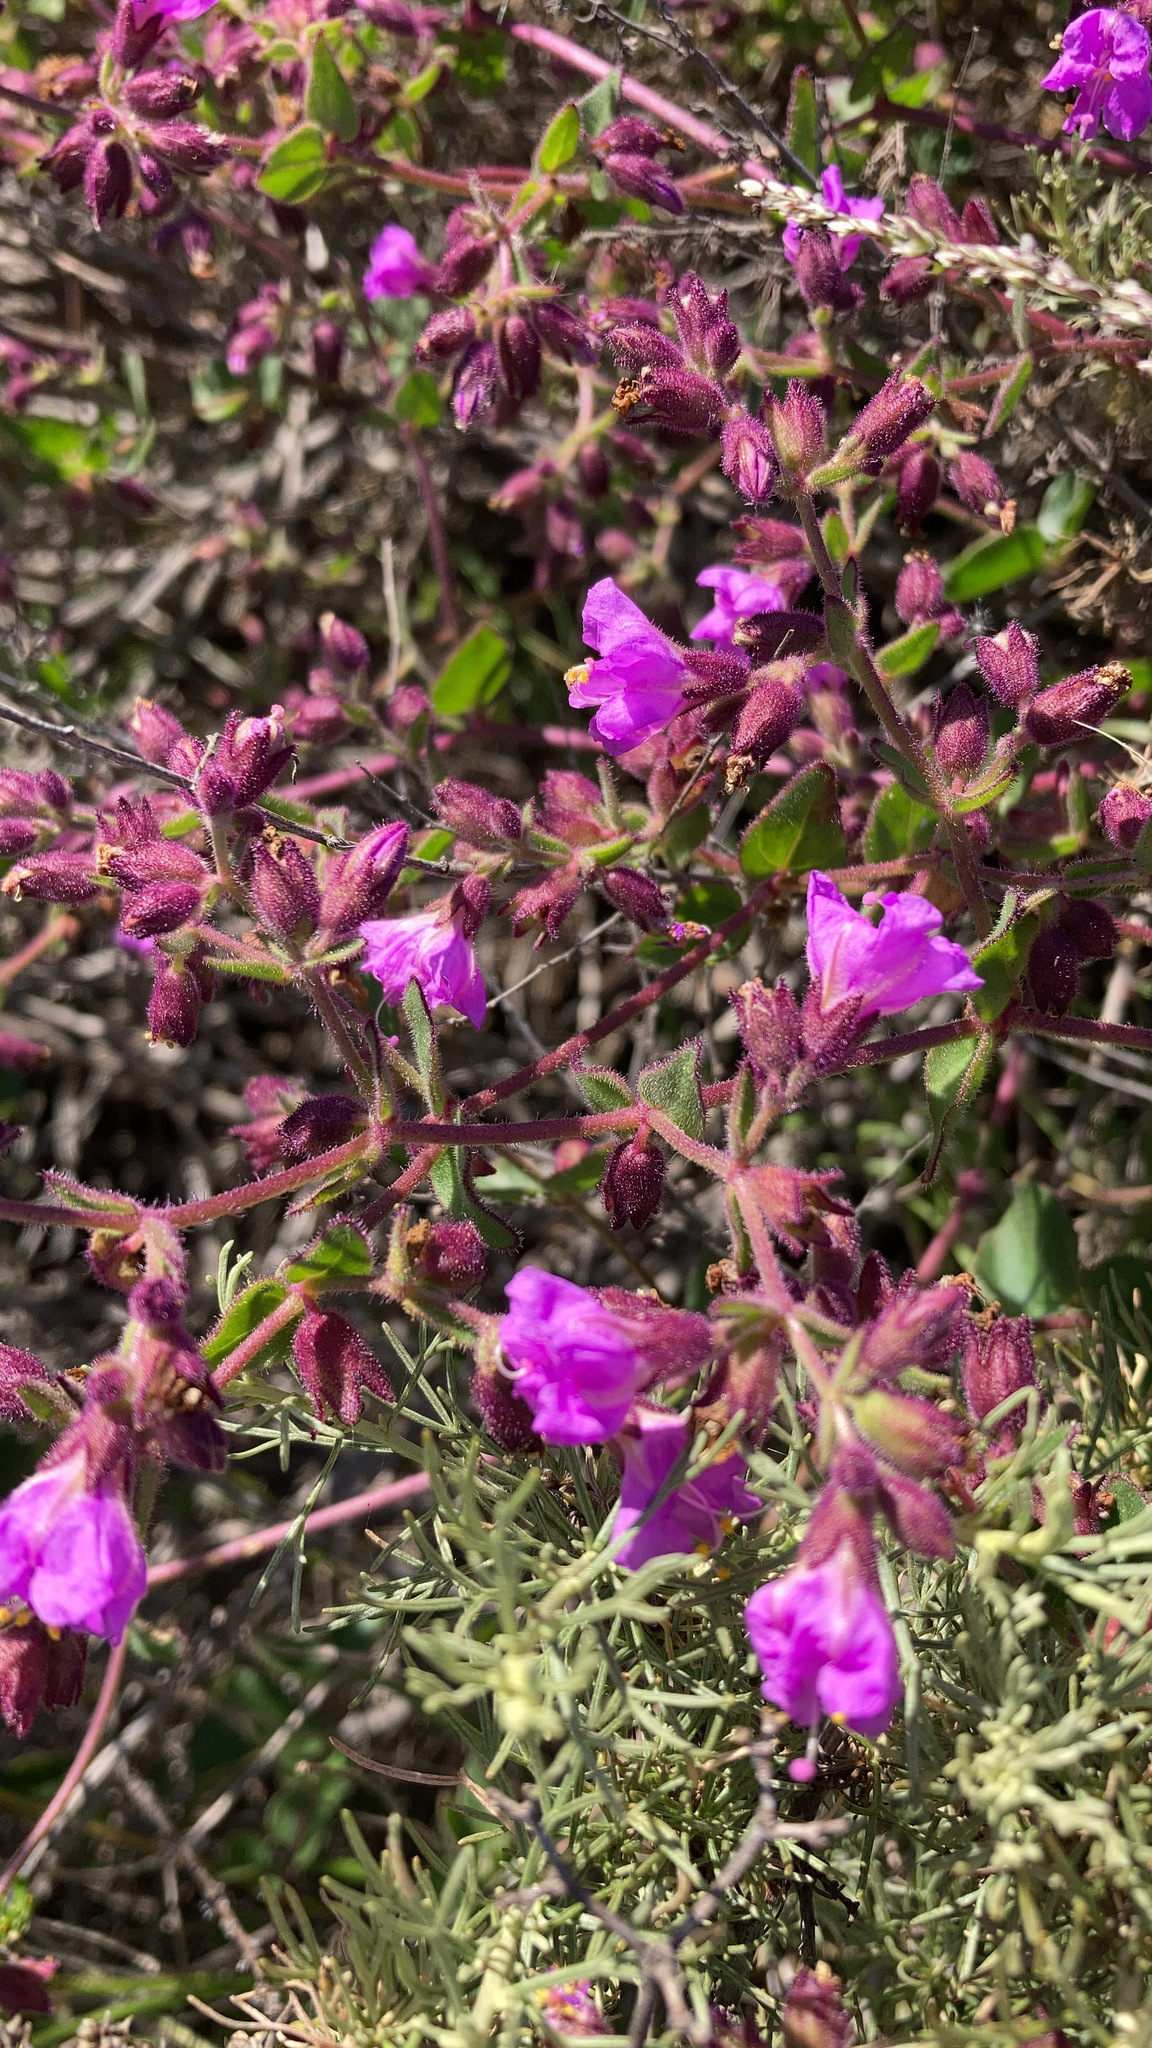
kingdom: Plantae
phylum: Tracheophyta
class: Magnoliopsida
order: Caryophyllales
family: Nyctaginaceae
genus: Mirabilis
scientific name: Mirabilis laevis
